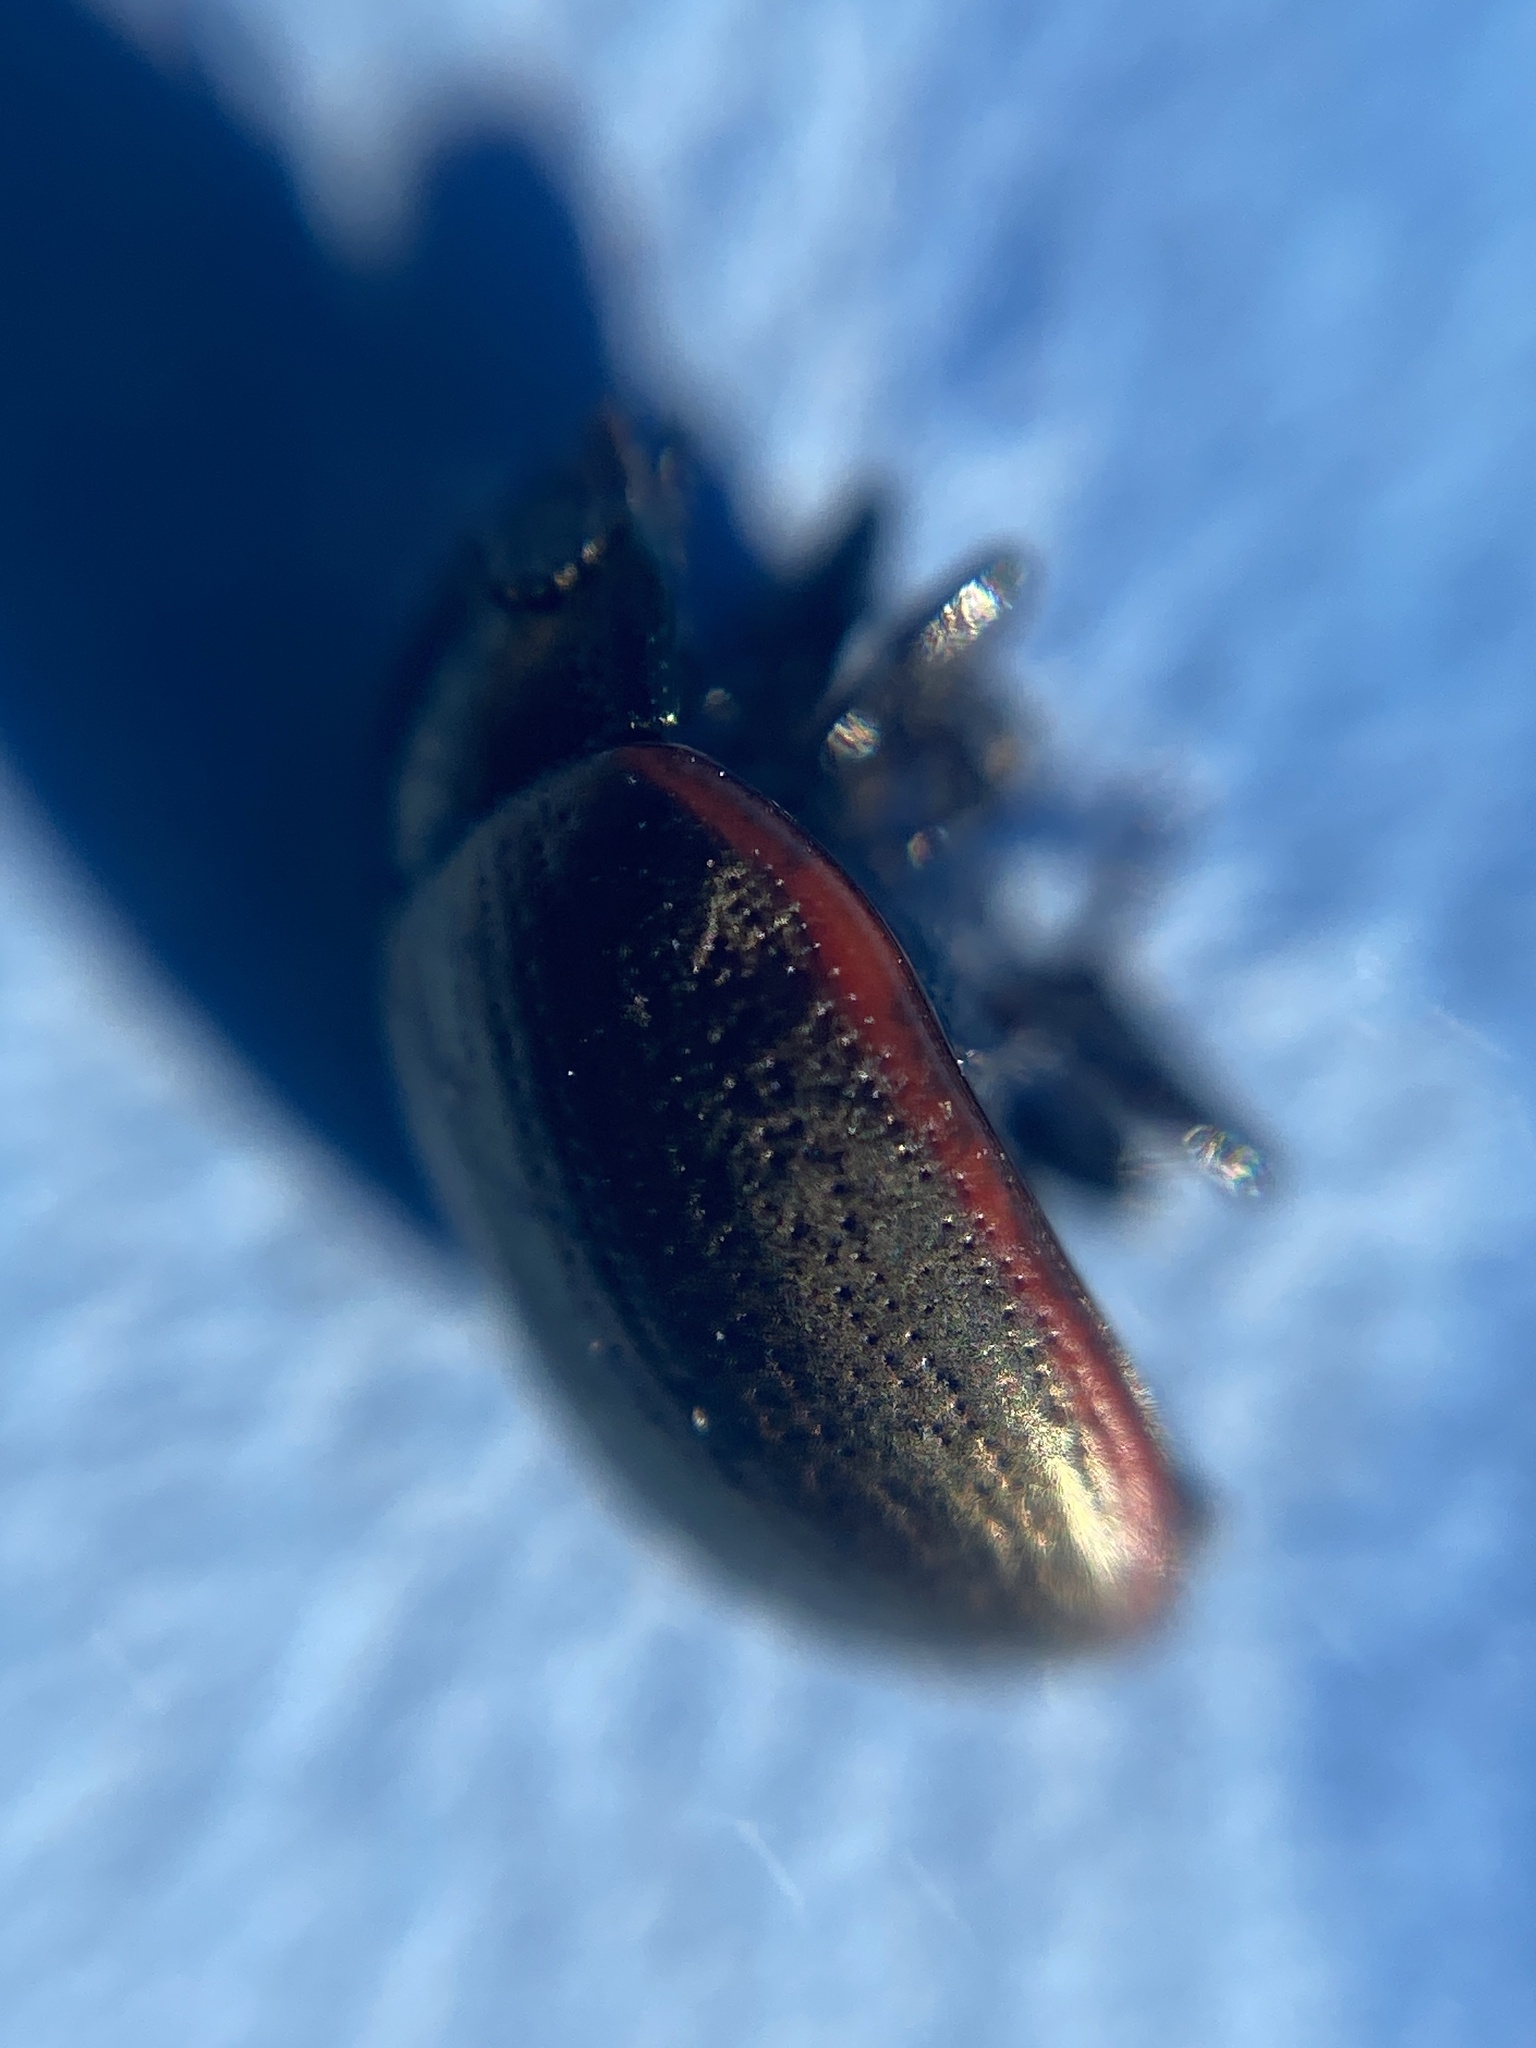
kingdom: Animalia
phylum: Arthropoda
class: Insecta
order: Coleoptera
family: Chrysomelidae
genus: Chrysolina
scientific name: Chrysolina marginata
